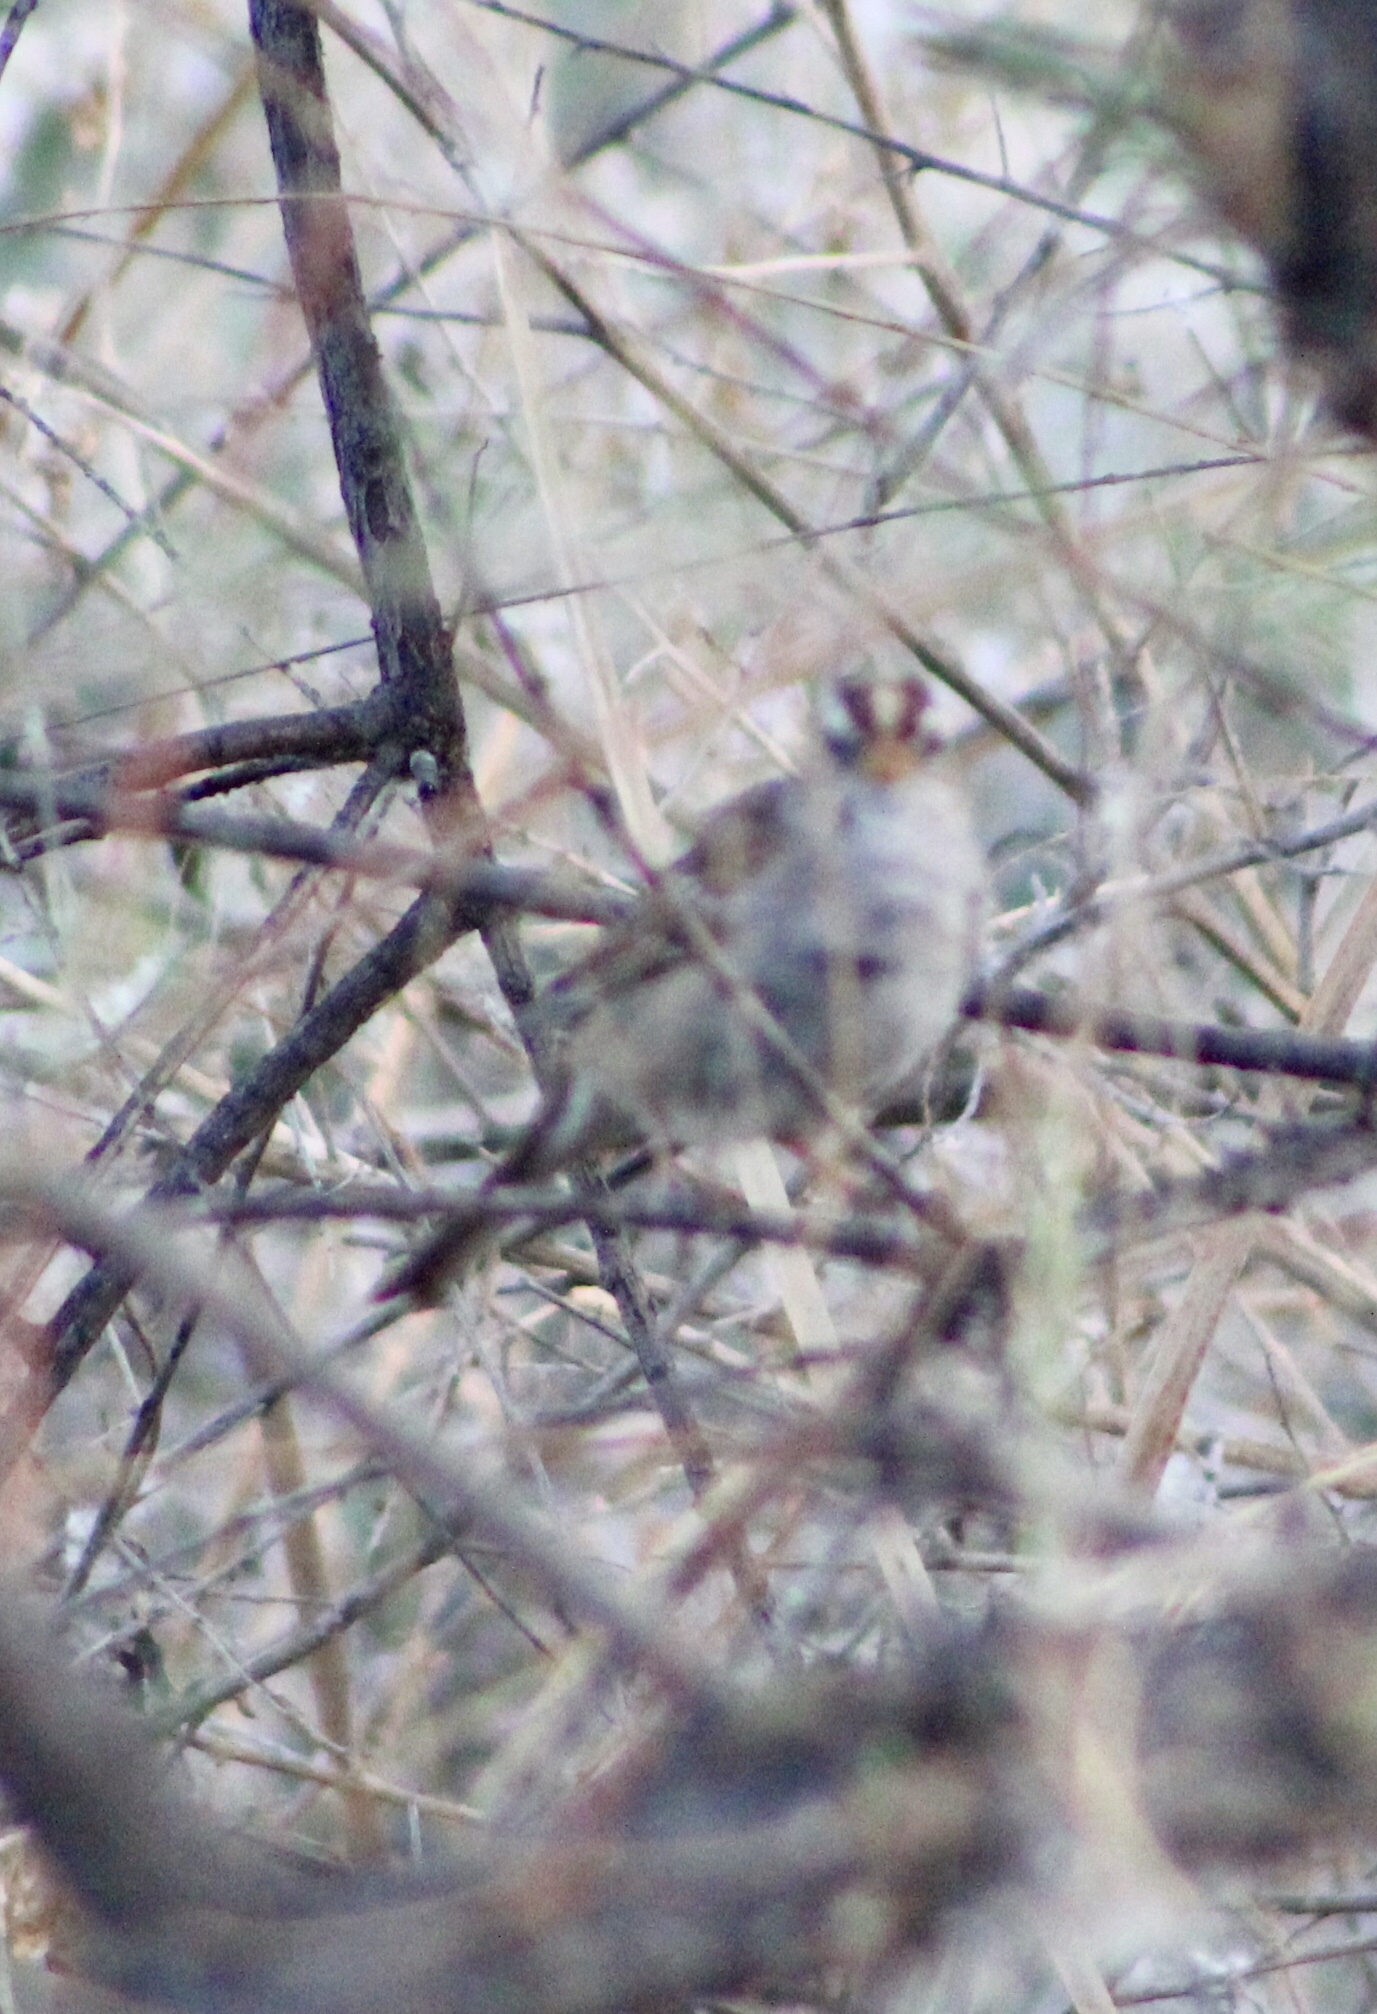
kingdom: Animalia
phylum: Chordata
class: Aves
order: Passeriformes
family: Passerellidae
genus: Zonotrichia
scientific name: Zonotrichia leucophrys
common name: White-crowned sparrow
